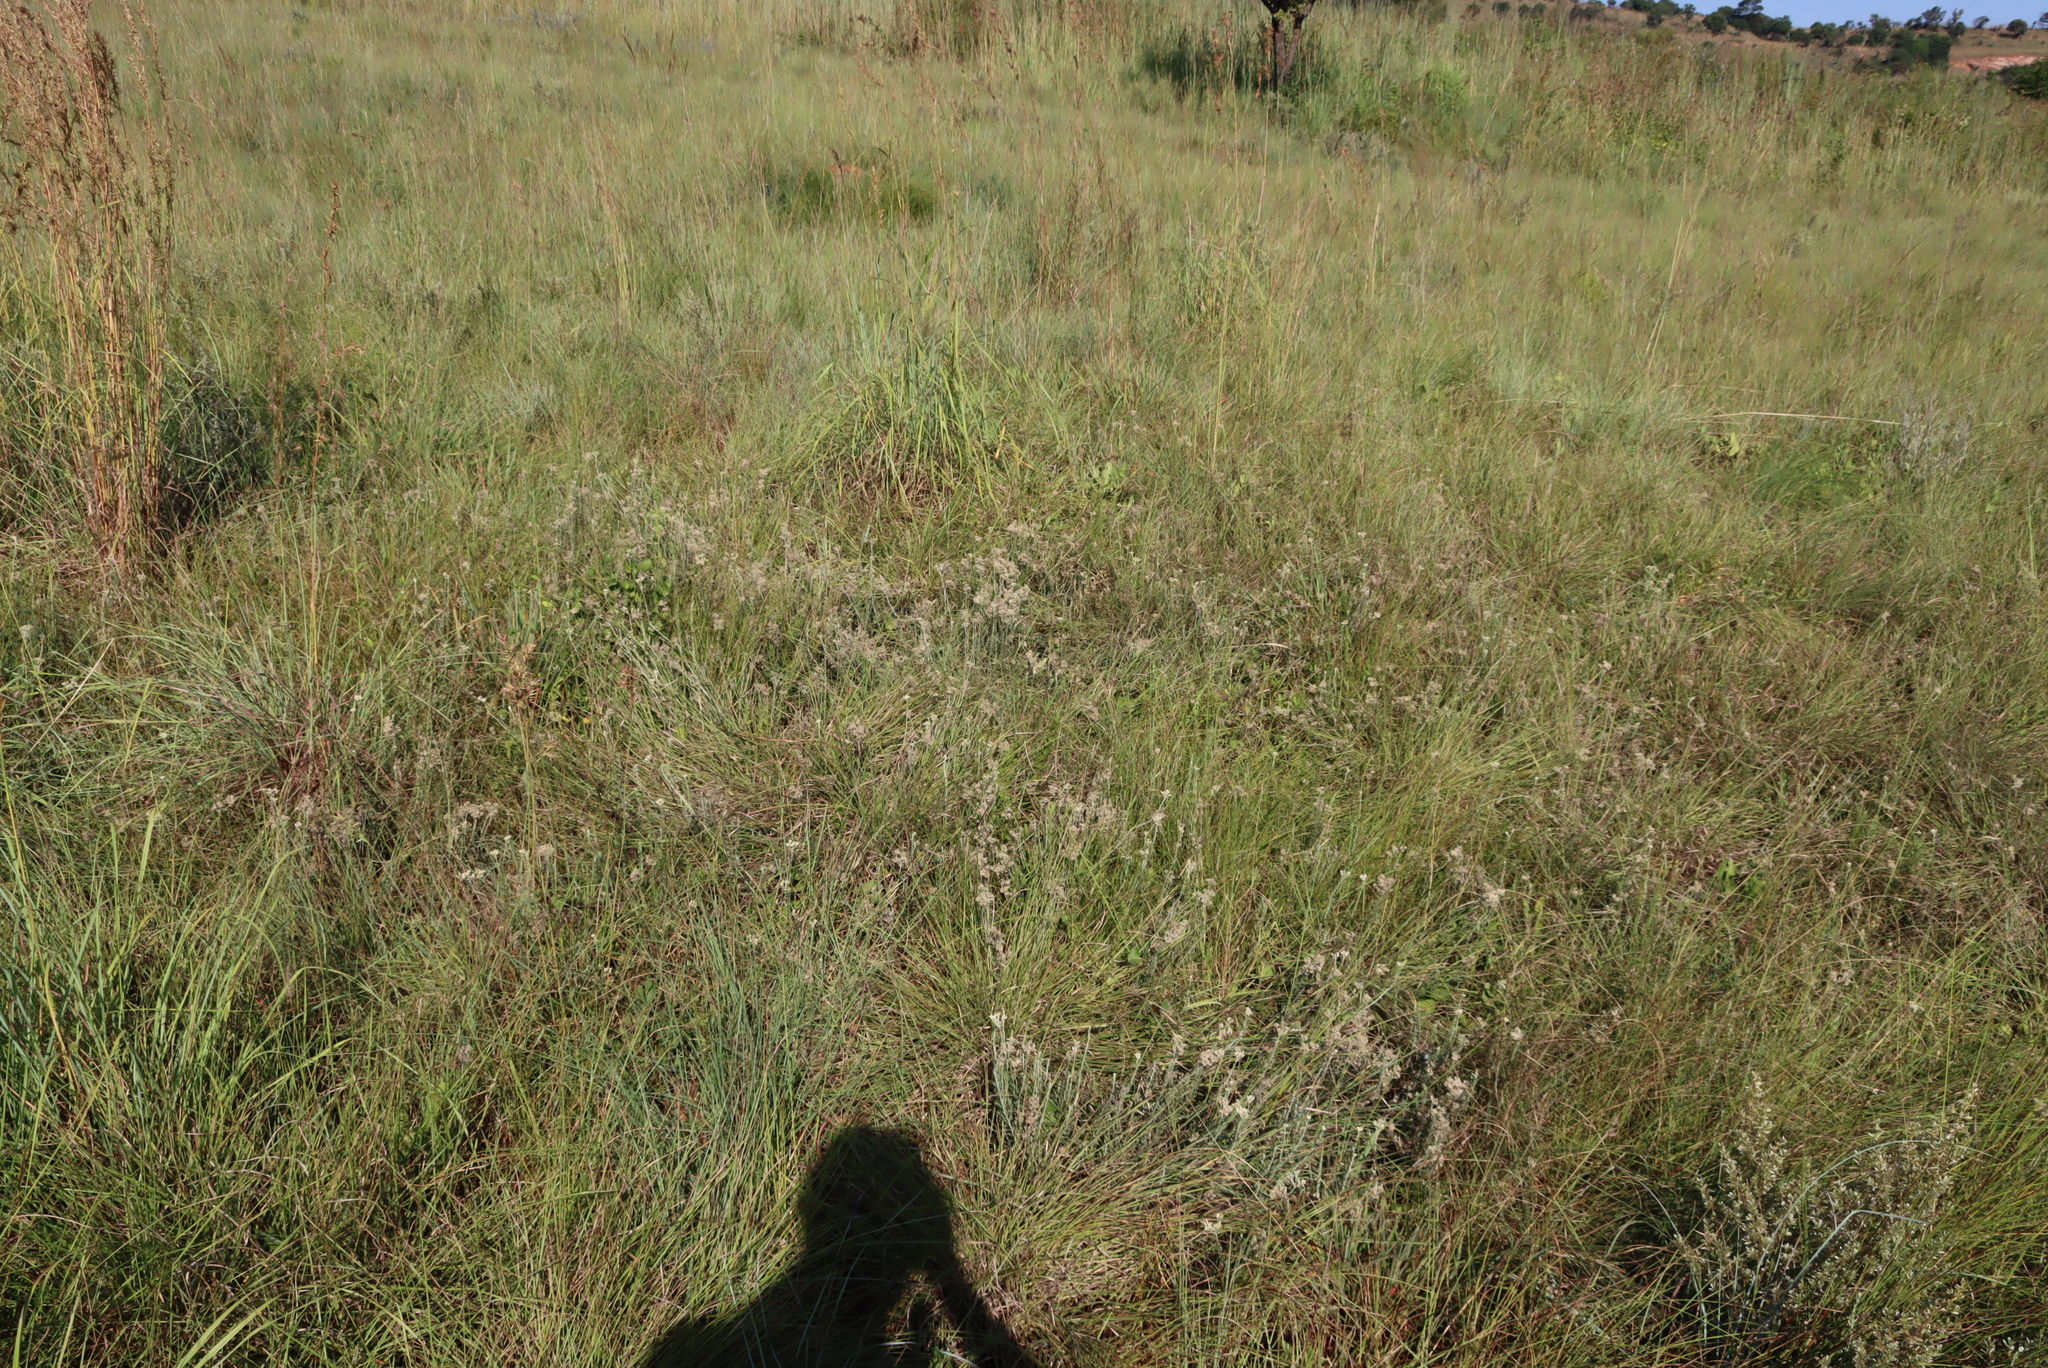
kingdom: Plantae
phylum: Tracheophyta
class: Magnoliopsida
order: Asterales
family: Asteraceae
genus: Helichrysum
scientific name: Helichrysum rugulosum
